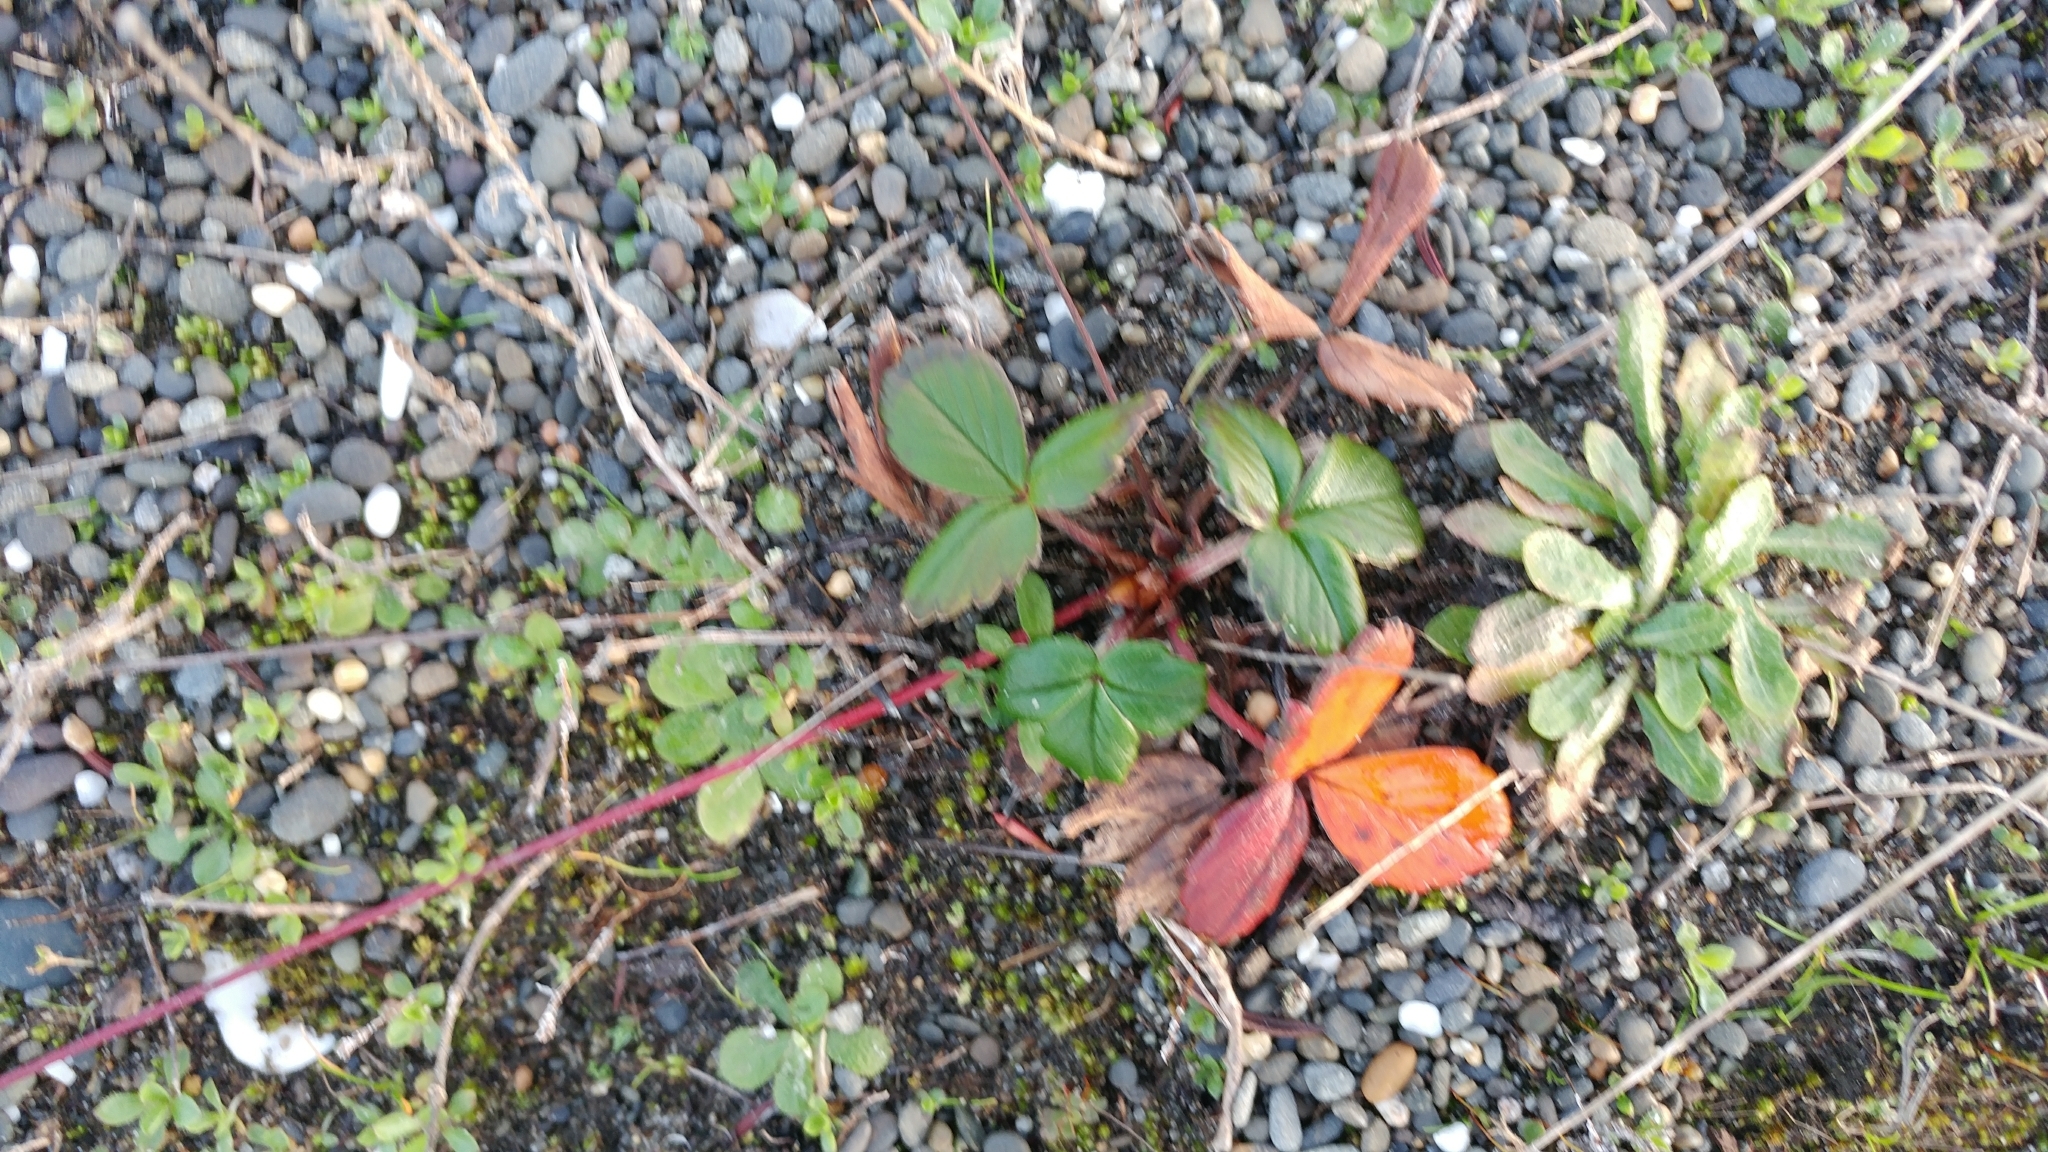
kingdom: Plantae
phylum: Tracheophyta
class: Magnoliopsida
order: Rosales
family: Rosaceae
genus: Fragaria
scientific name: Fragaria chiloensis
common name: Beach strawberry
